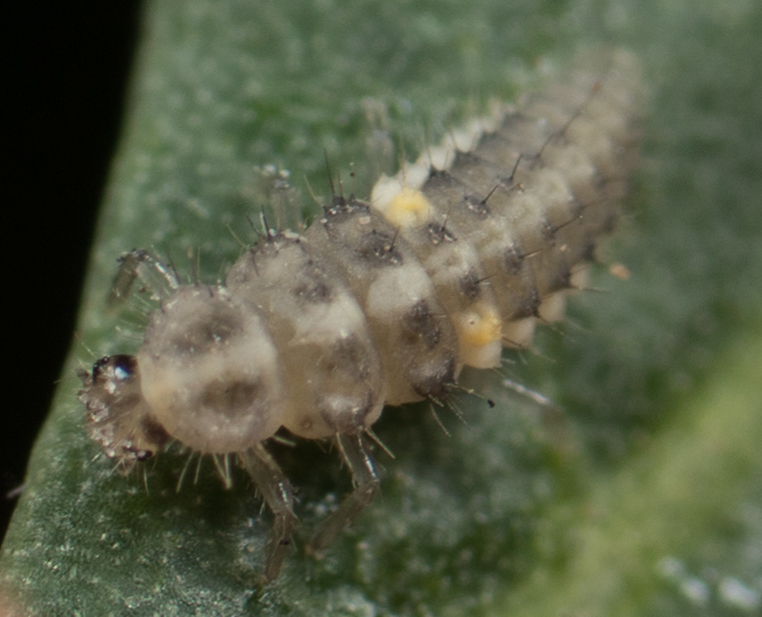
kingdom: Animalia
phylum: Arthropoda
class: Insecta
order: Coleoptera
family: Coccinellidae
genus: Psyllobora
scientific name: Psyllobora renifer
